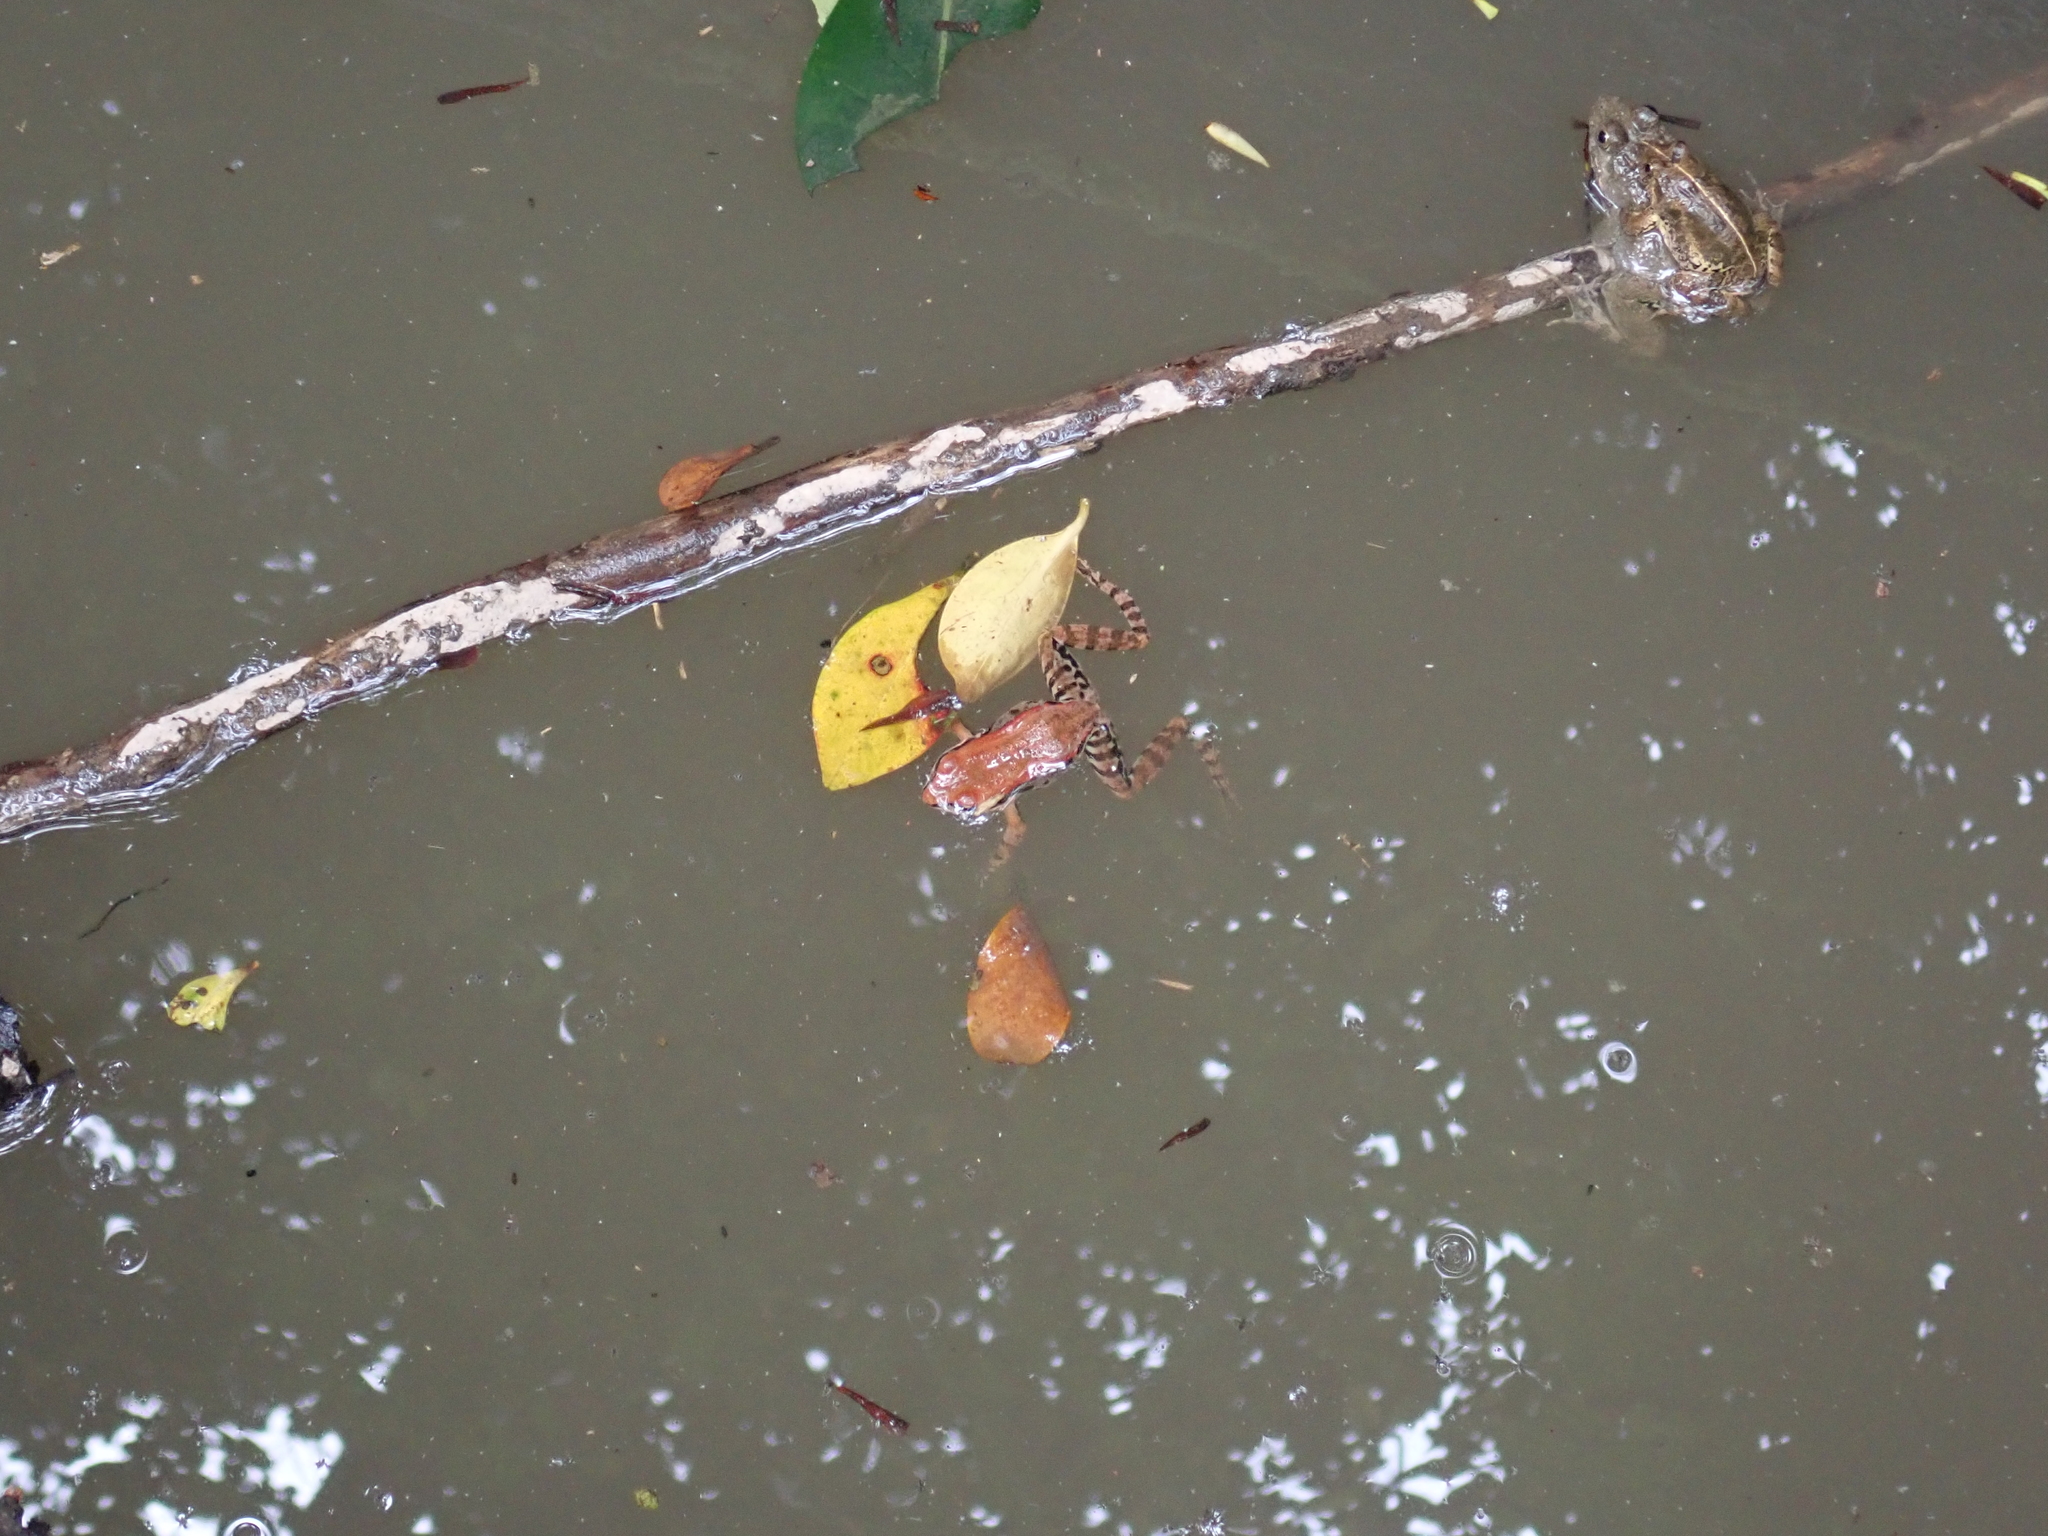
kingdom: Animalia
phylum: Chordata
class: Amphibia
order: Anura
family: Ranidae
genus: Hylarana
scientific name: Hylarana latouchii
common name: Broad-folded frog
